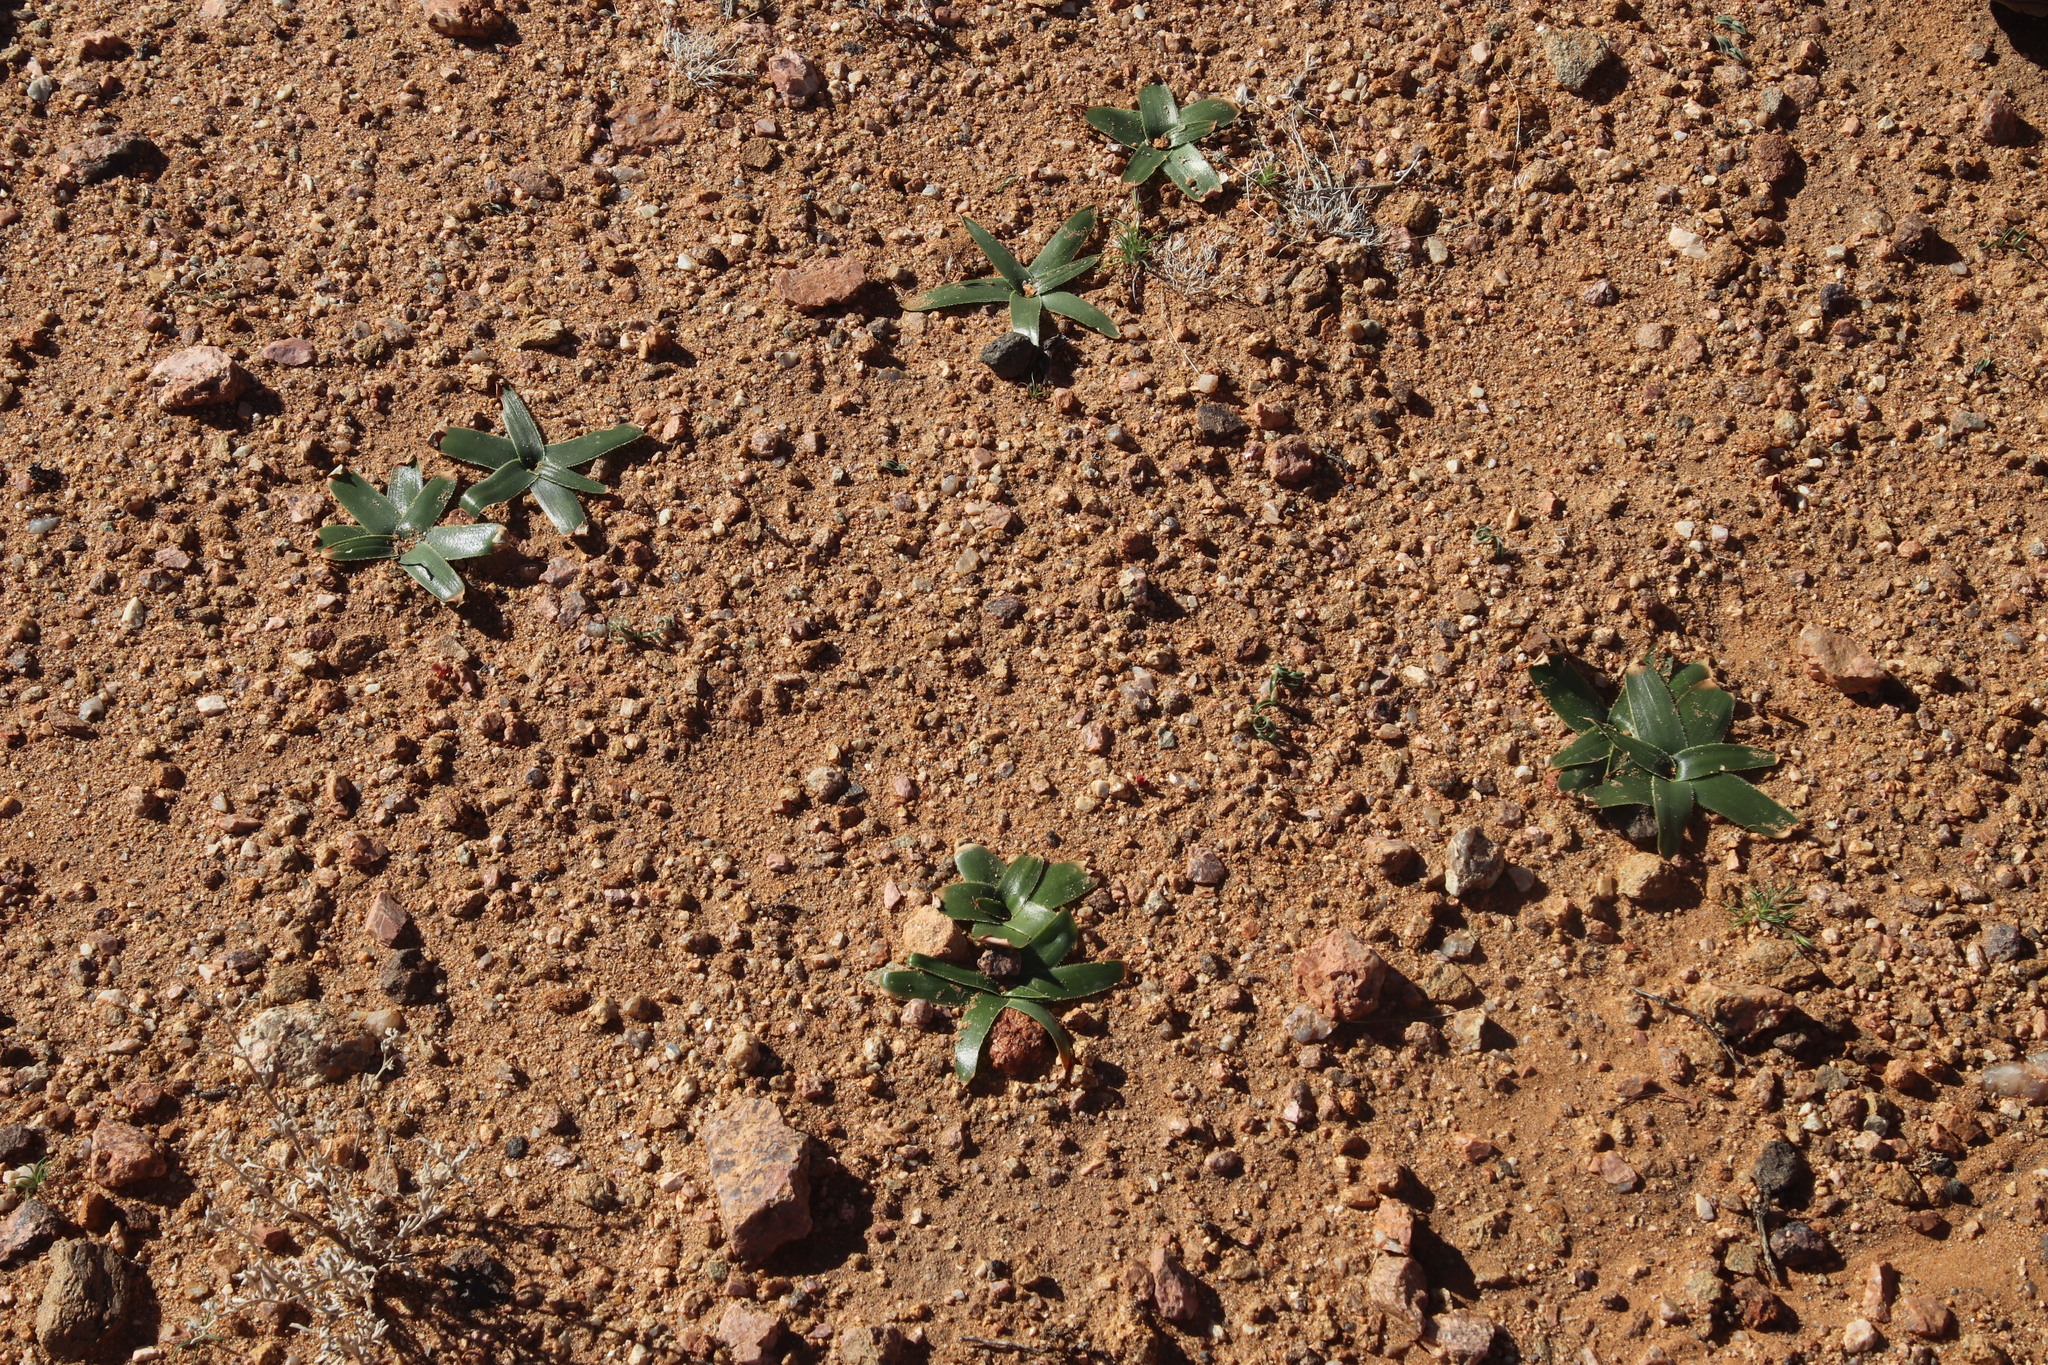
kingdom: Plantae
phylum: Tracheophyta
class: Liliopsida
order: Asparagales
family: Asparagaceae
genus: Albuca
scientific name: Albuca secunda
